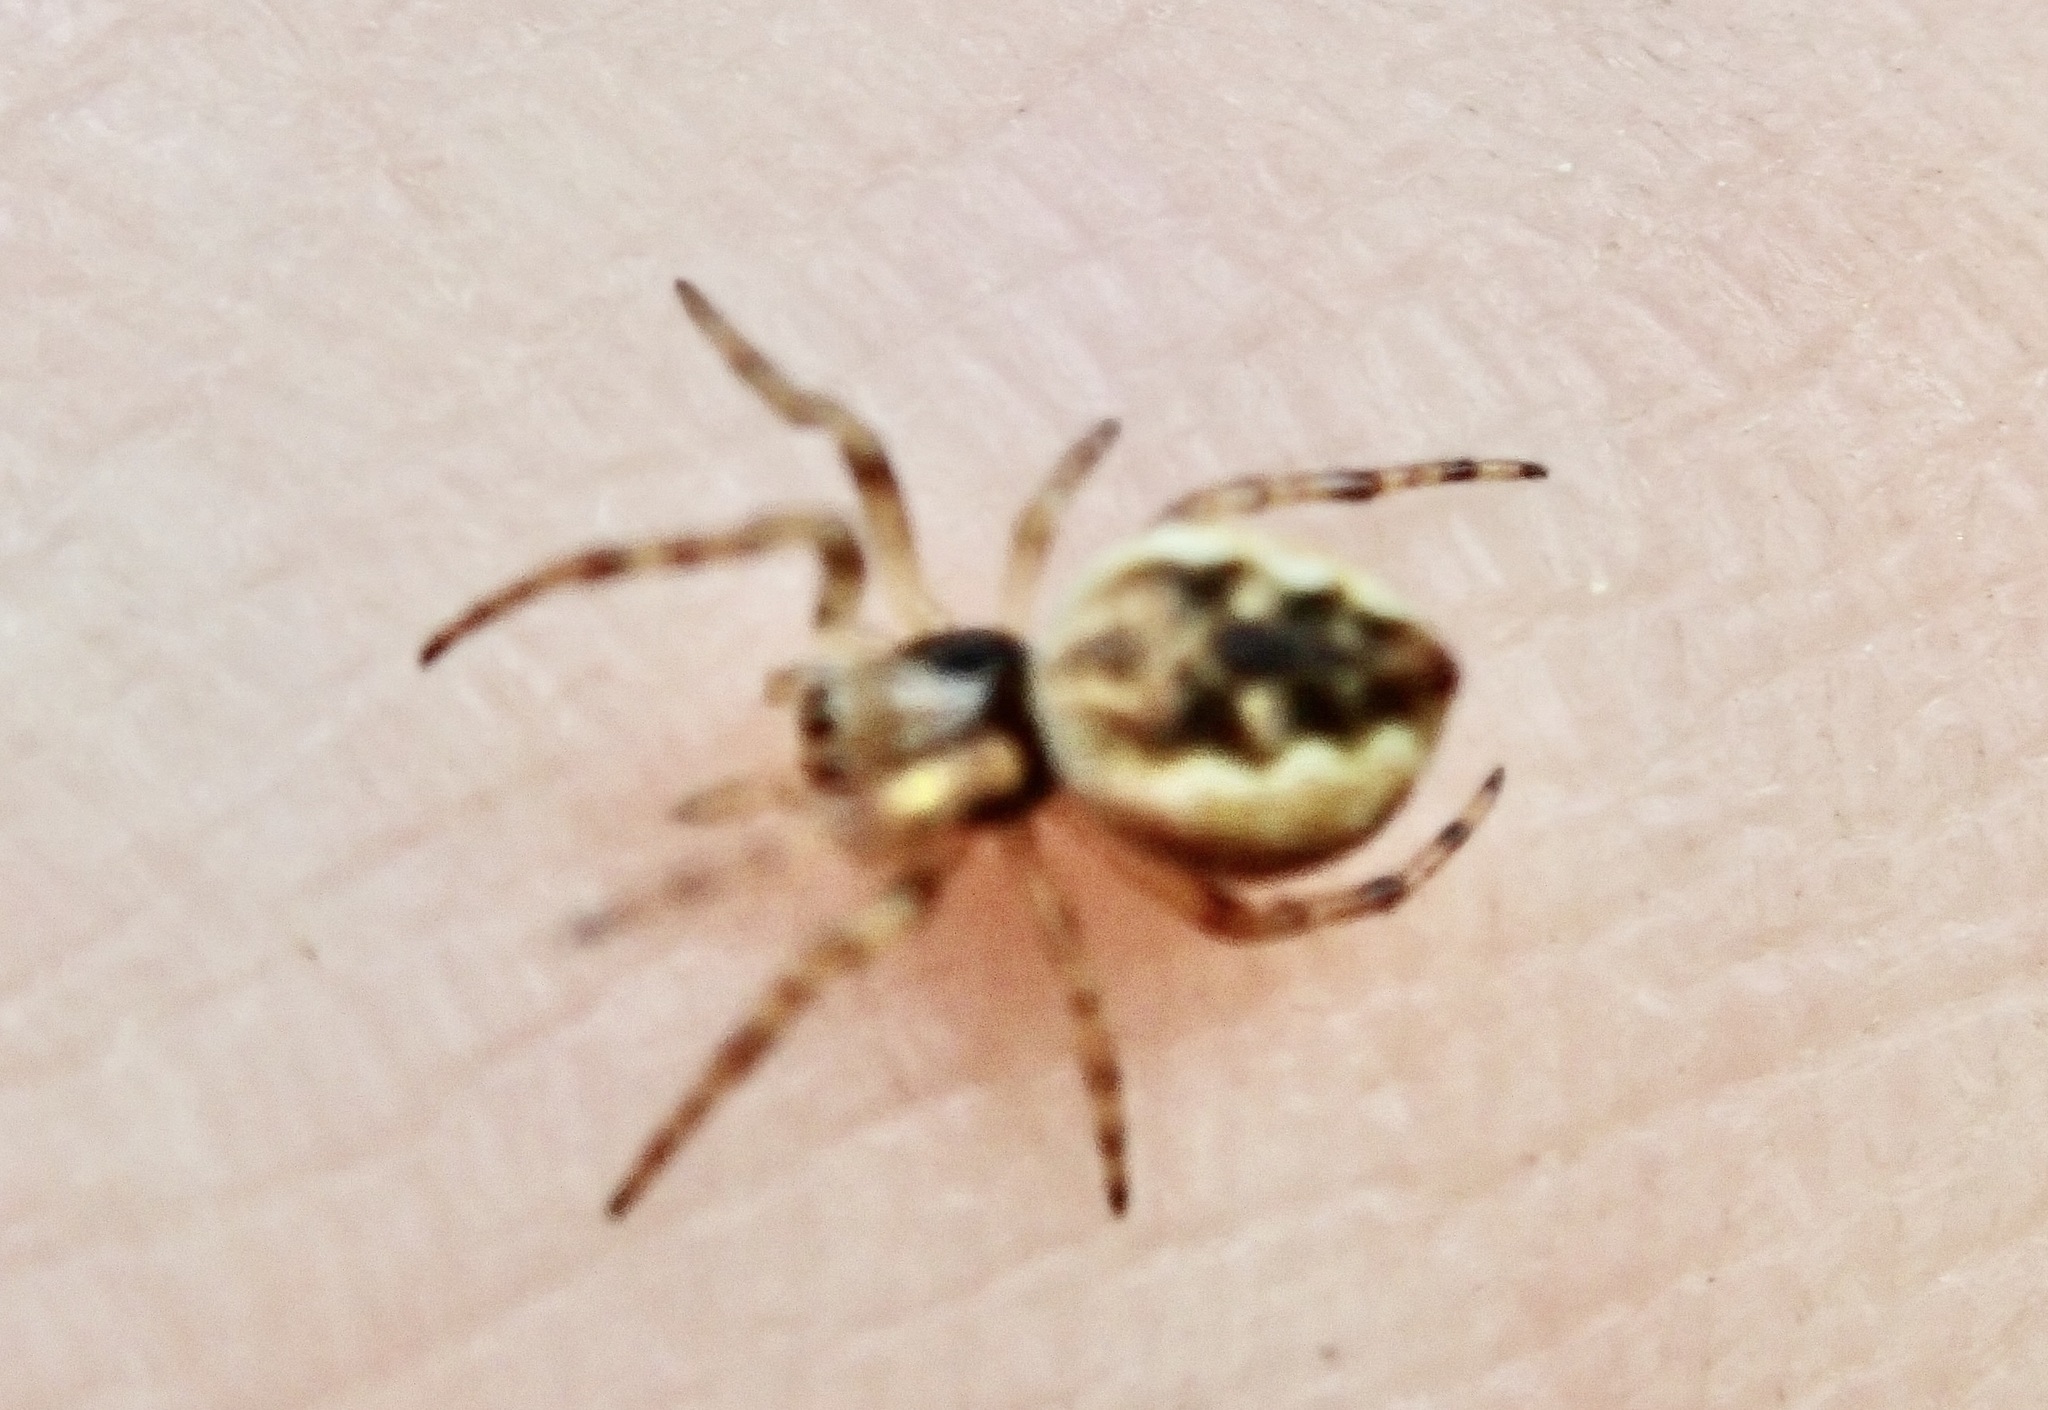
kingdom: Animalia
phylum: Arthropoda
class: Arachnida
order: Araneae
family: Araneidae
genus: Salsa
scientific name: Salsa fuliginata
